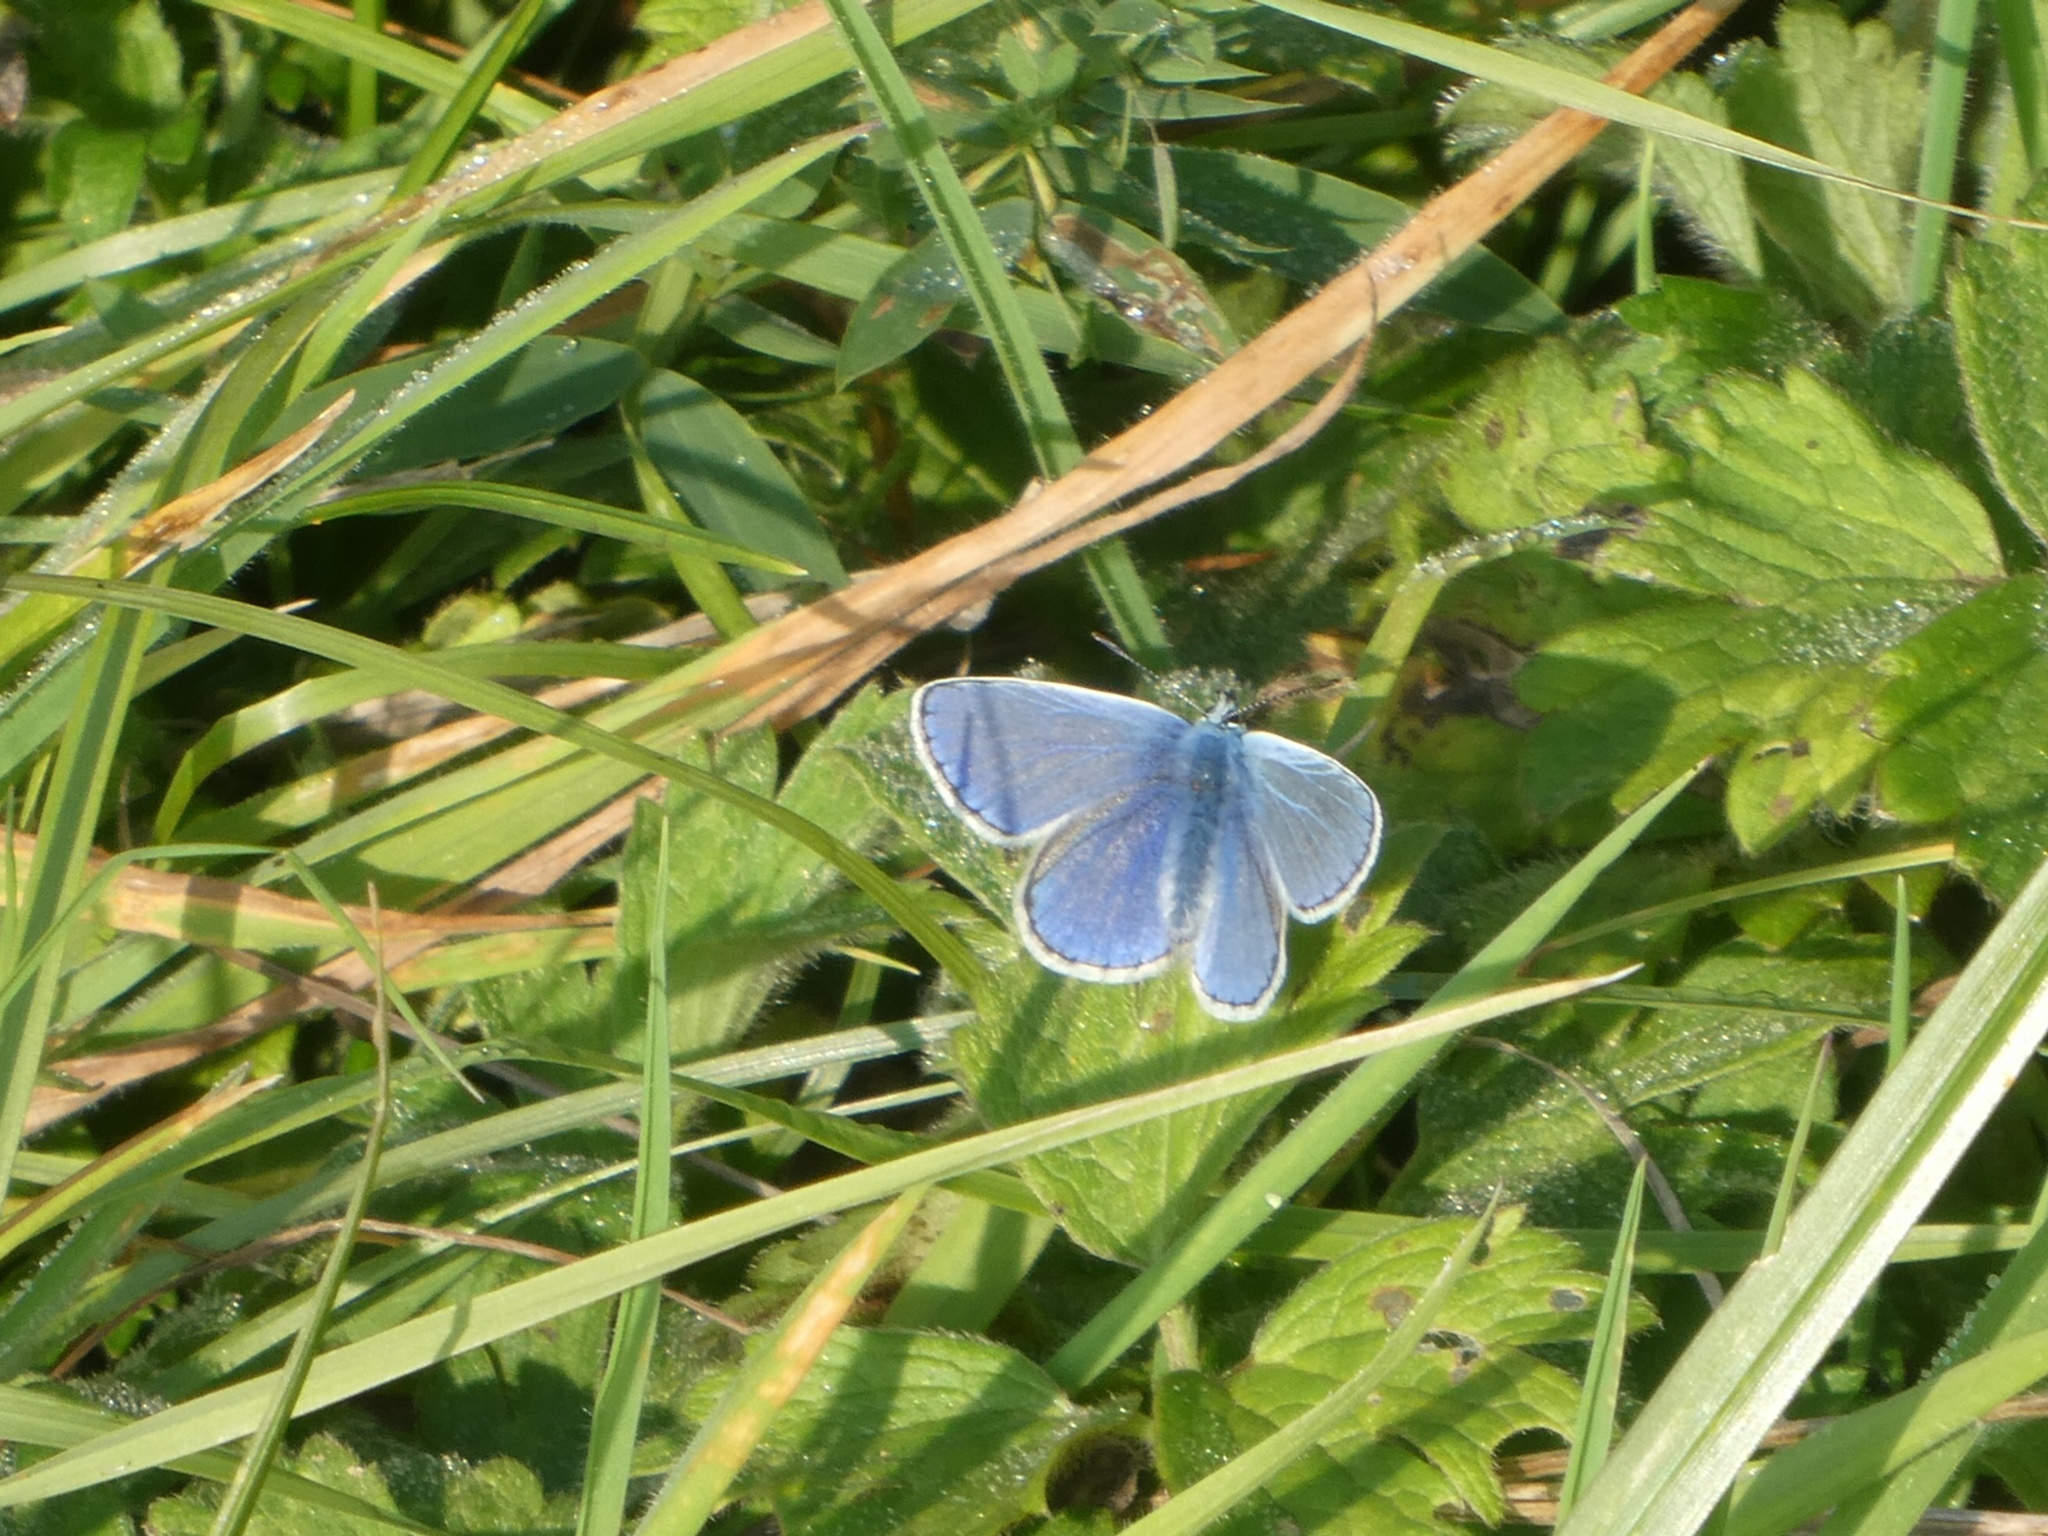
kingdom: Animalia
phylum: Arthropoda
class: Insecta
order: Lepidoptera
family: Lycaenidae
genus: Polyommatus
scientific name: Polyommatus icarus
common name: Common blue
